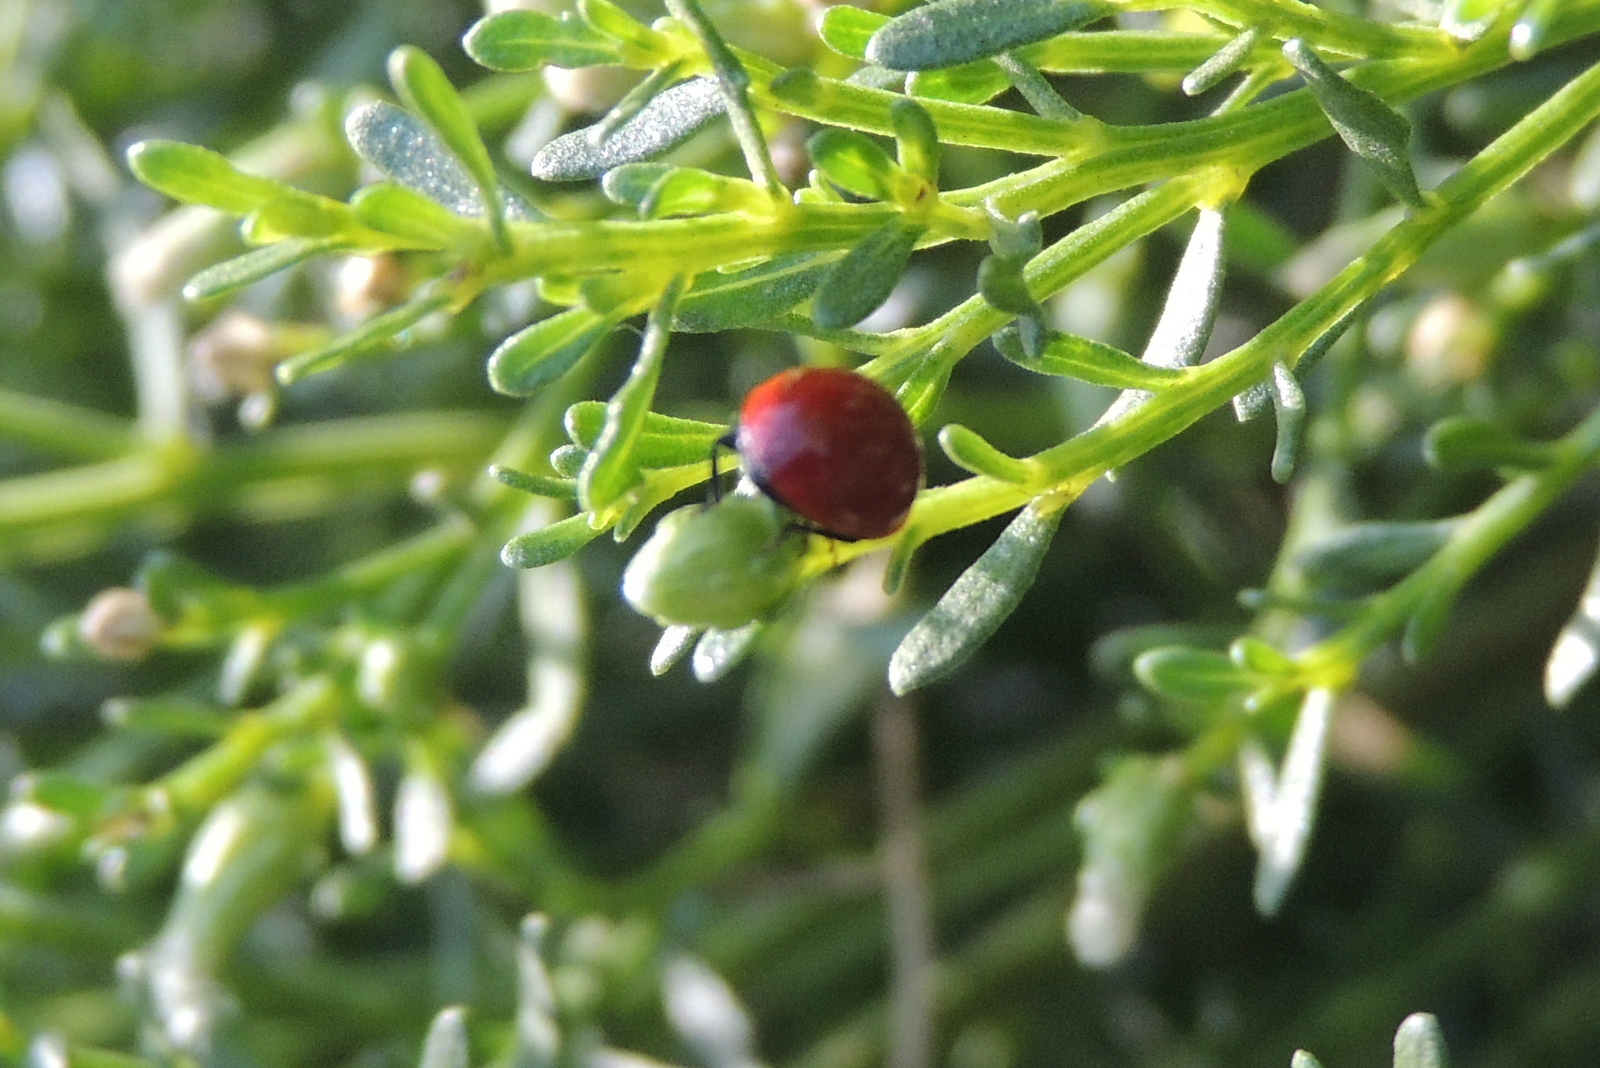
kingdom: Animalia
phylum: Arthropoda
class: Insecta
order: Coleoptera
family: Coccinellidae
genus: Cycloneda
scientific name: Cycloneda
